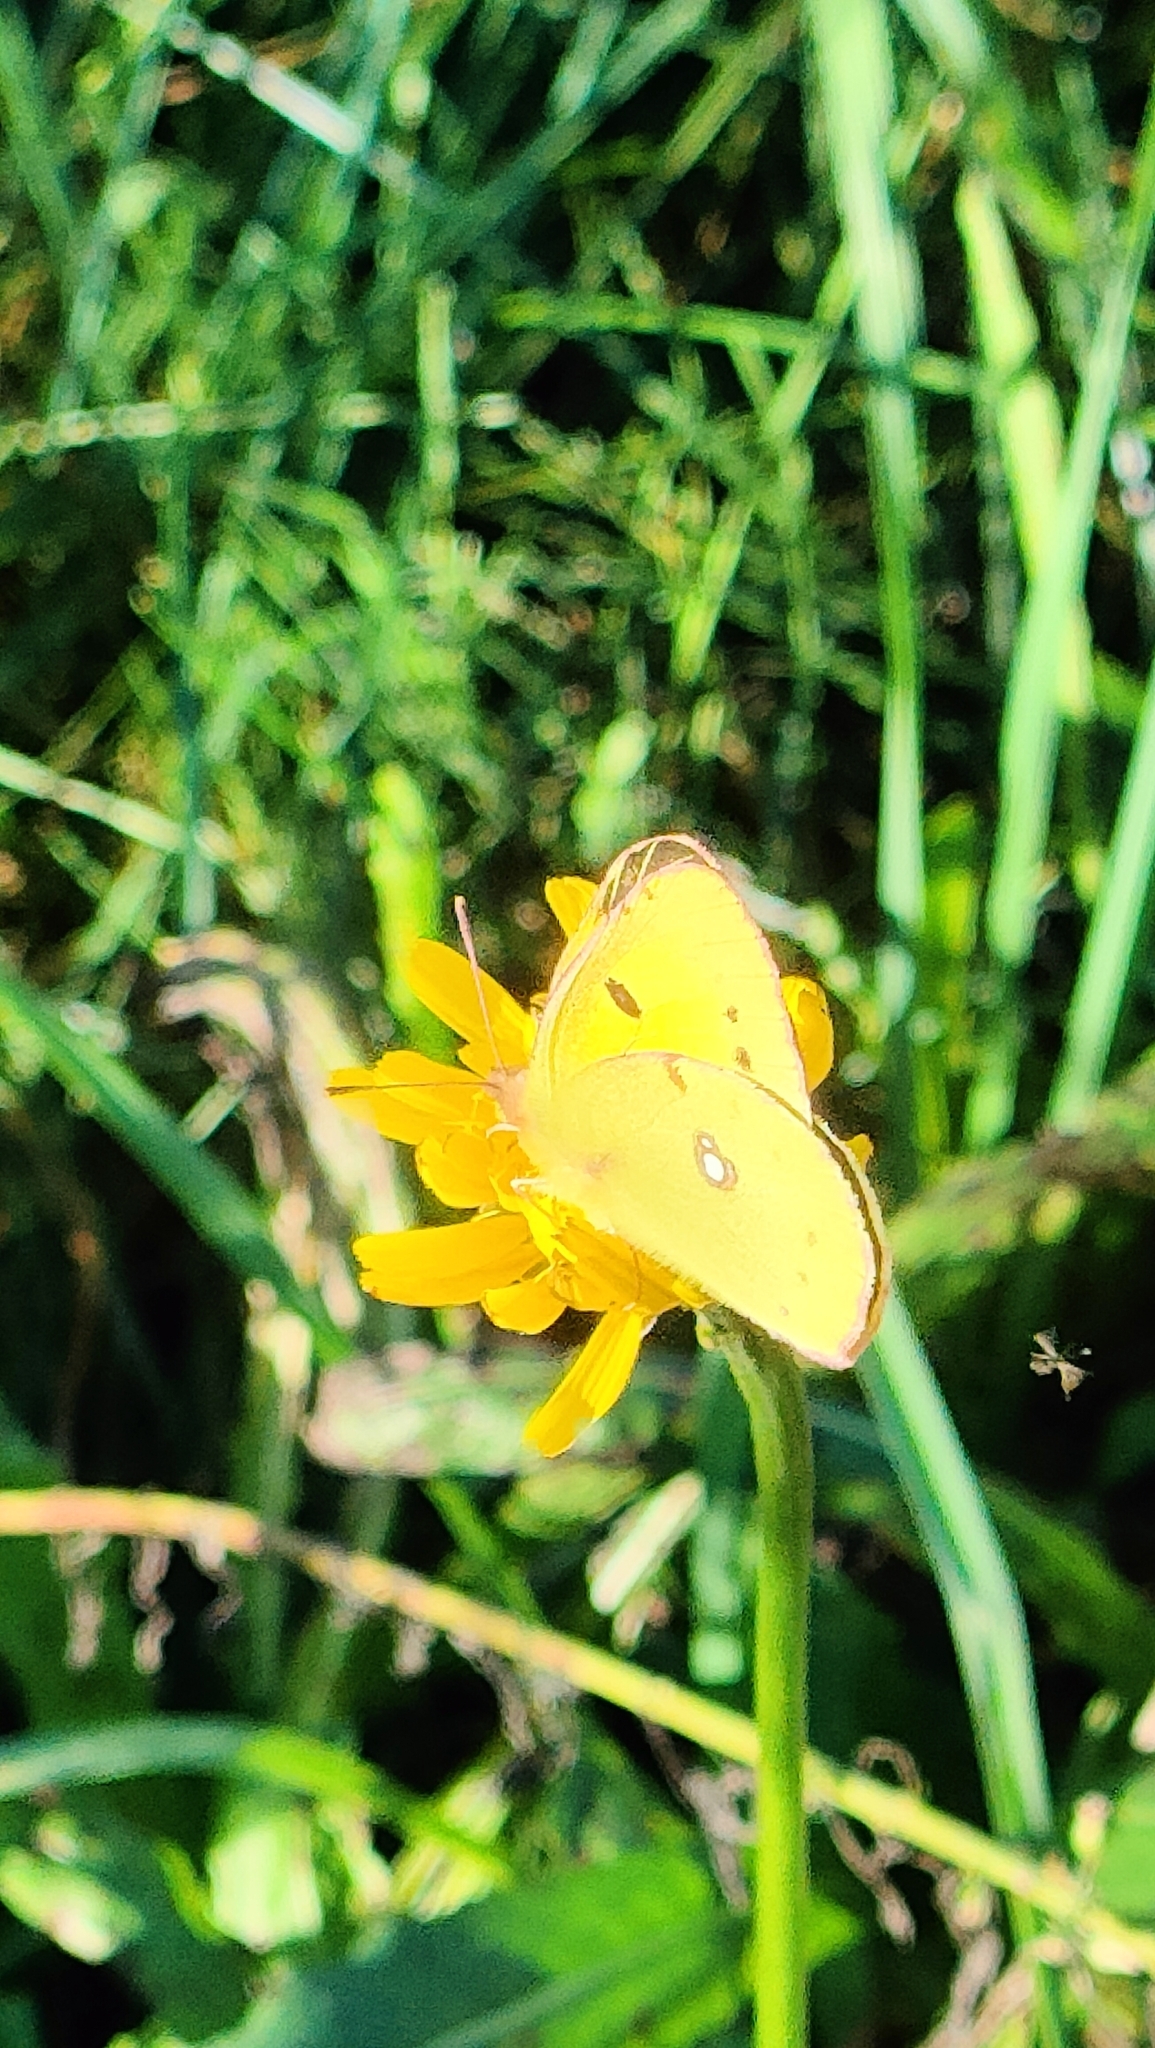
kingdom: Animalia
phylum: Arthropoda
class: Insecta
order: Lepidoptera
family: Pieridae
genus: Colias
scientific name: Colias croceus
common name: Clouded yellow
